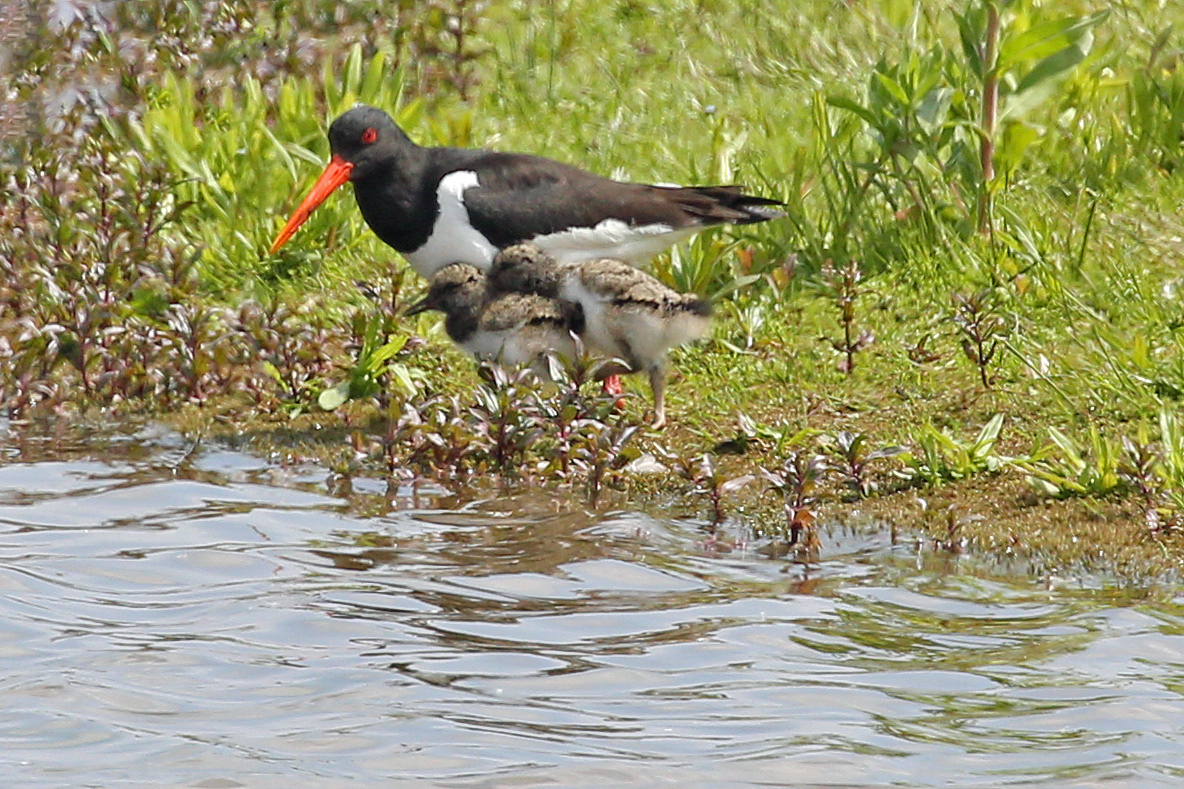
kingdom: Animalia
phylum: Chordata
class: Aves
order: Charadriiformes
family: Haematopodidae
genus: Haematopus
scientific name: Haematopus ostralegus
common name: Eurasian oystercatcher
